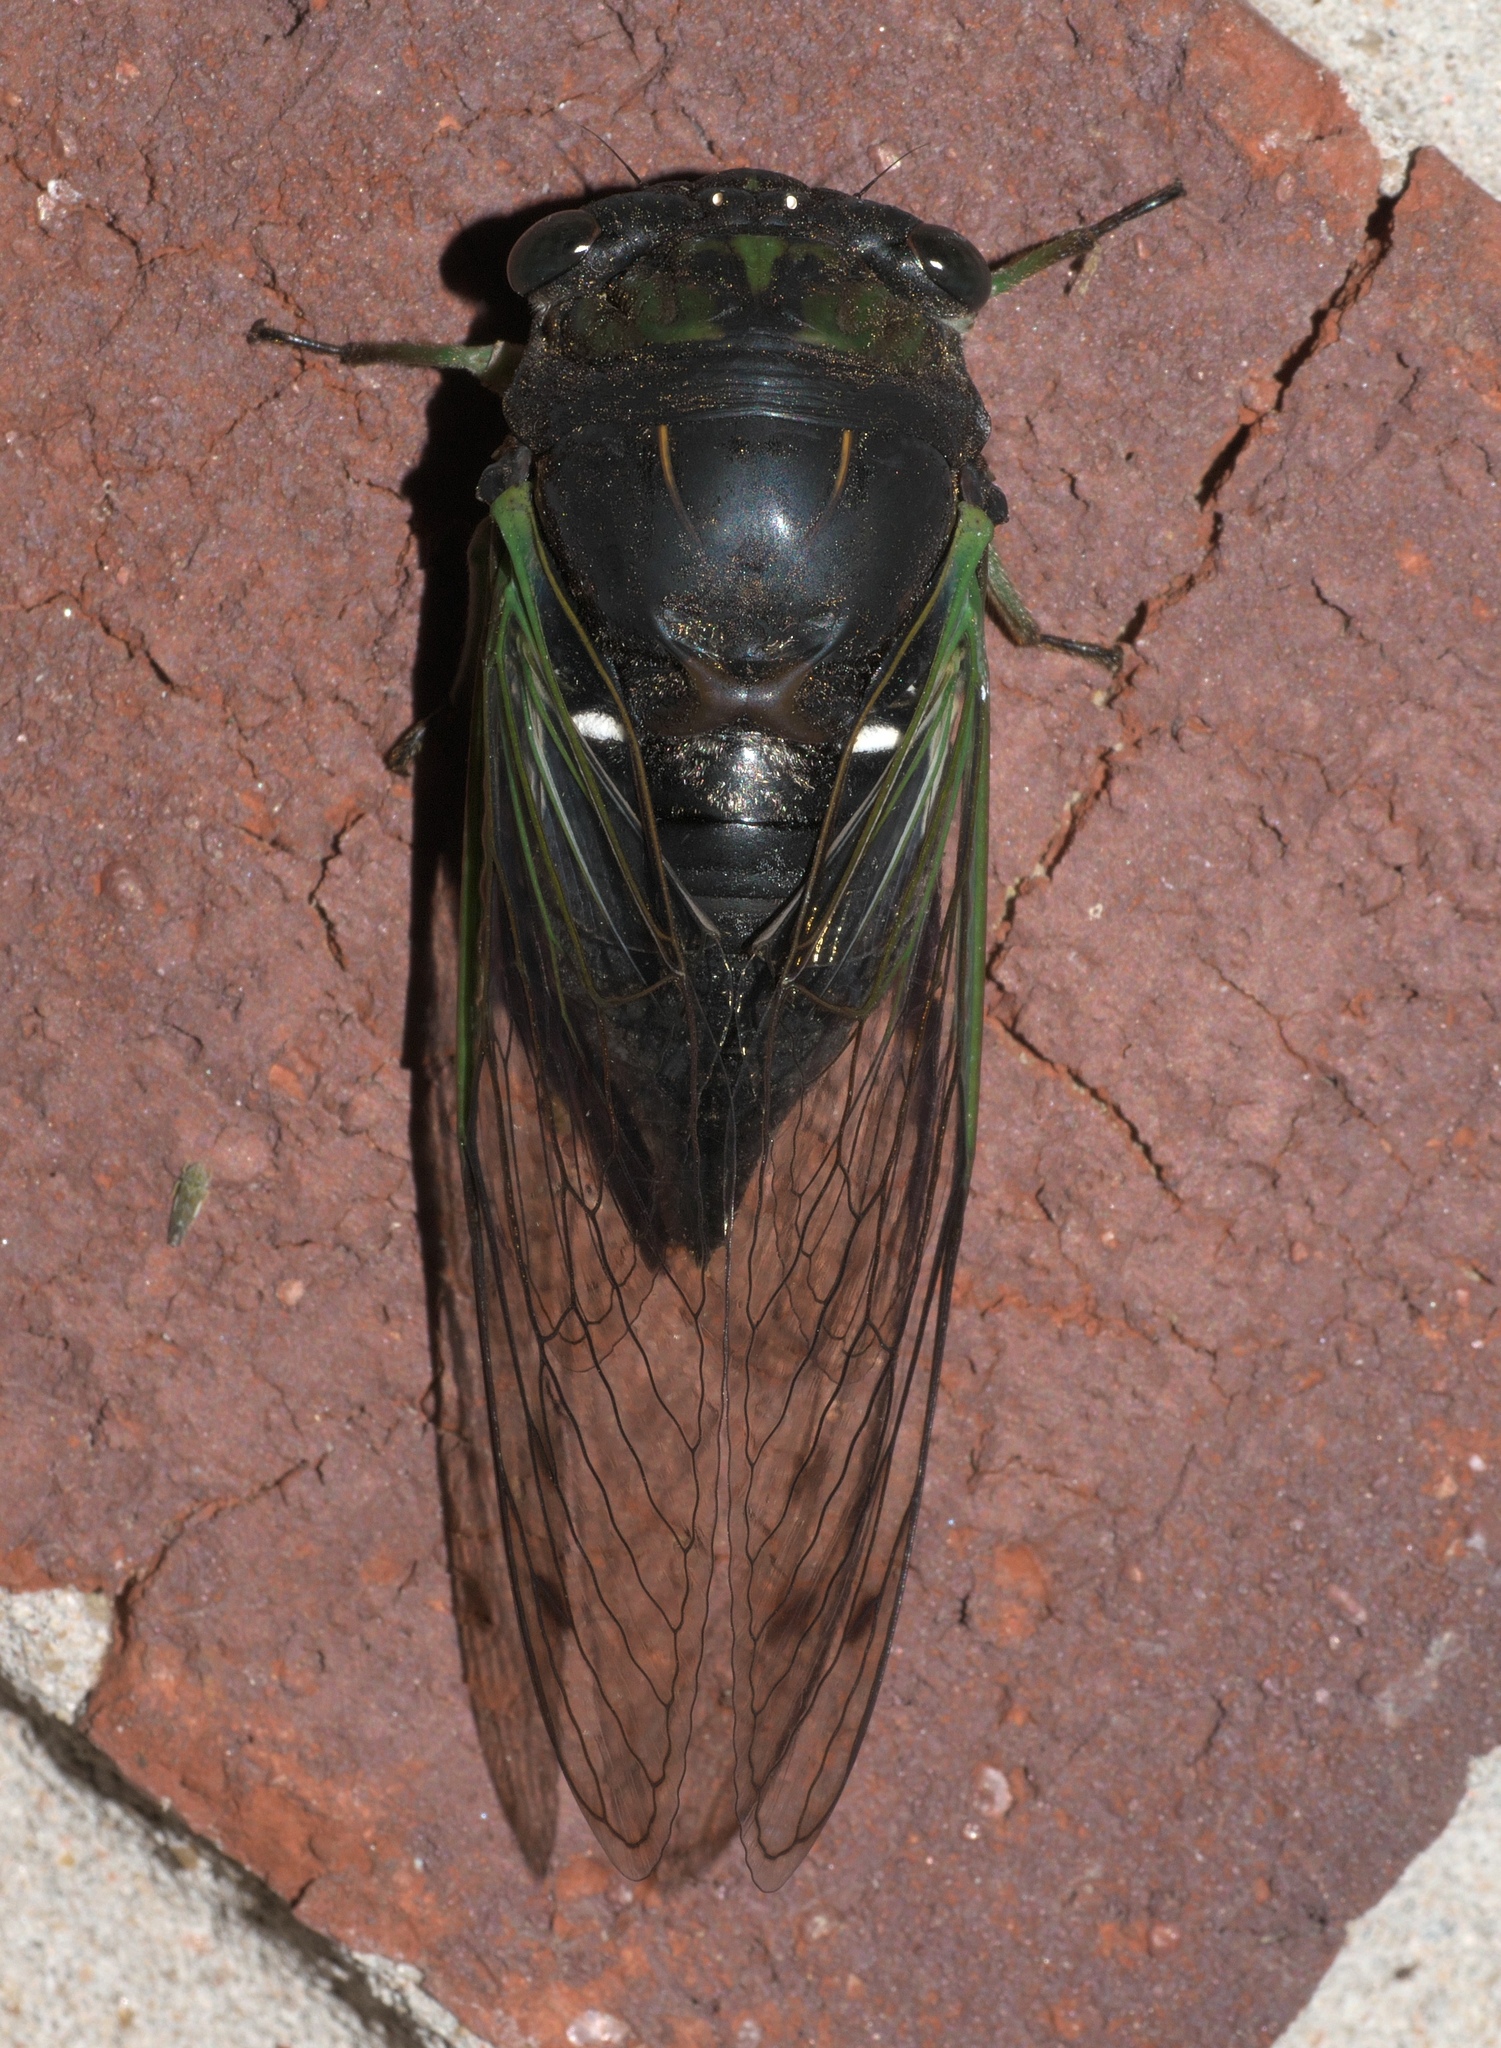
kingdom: Animalia
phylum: Arthropoda
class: Insecta
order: Hemiptera
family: Cicadidae
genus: Neotibicen
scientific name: Neotibicen tibicen
